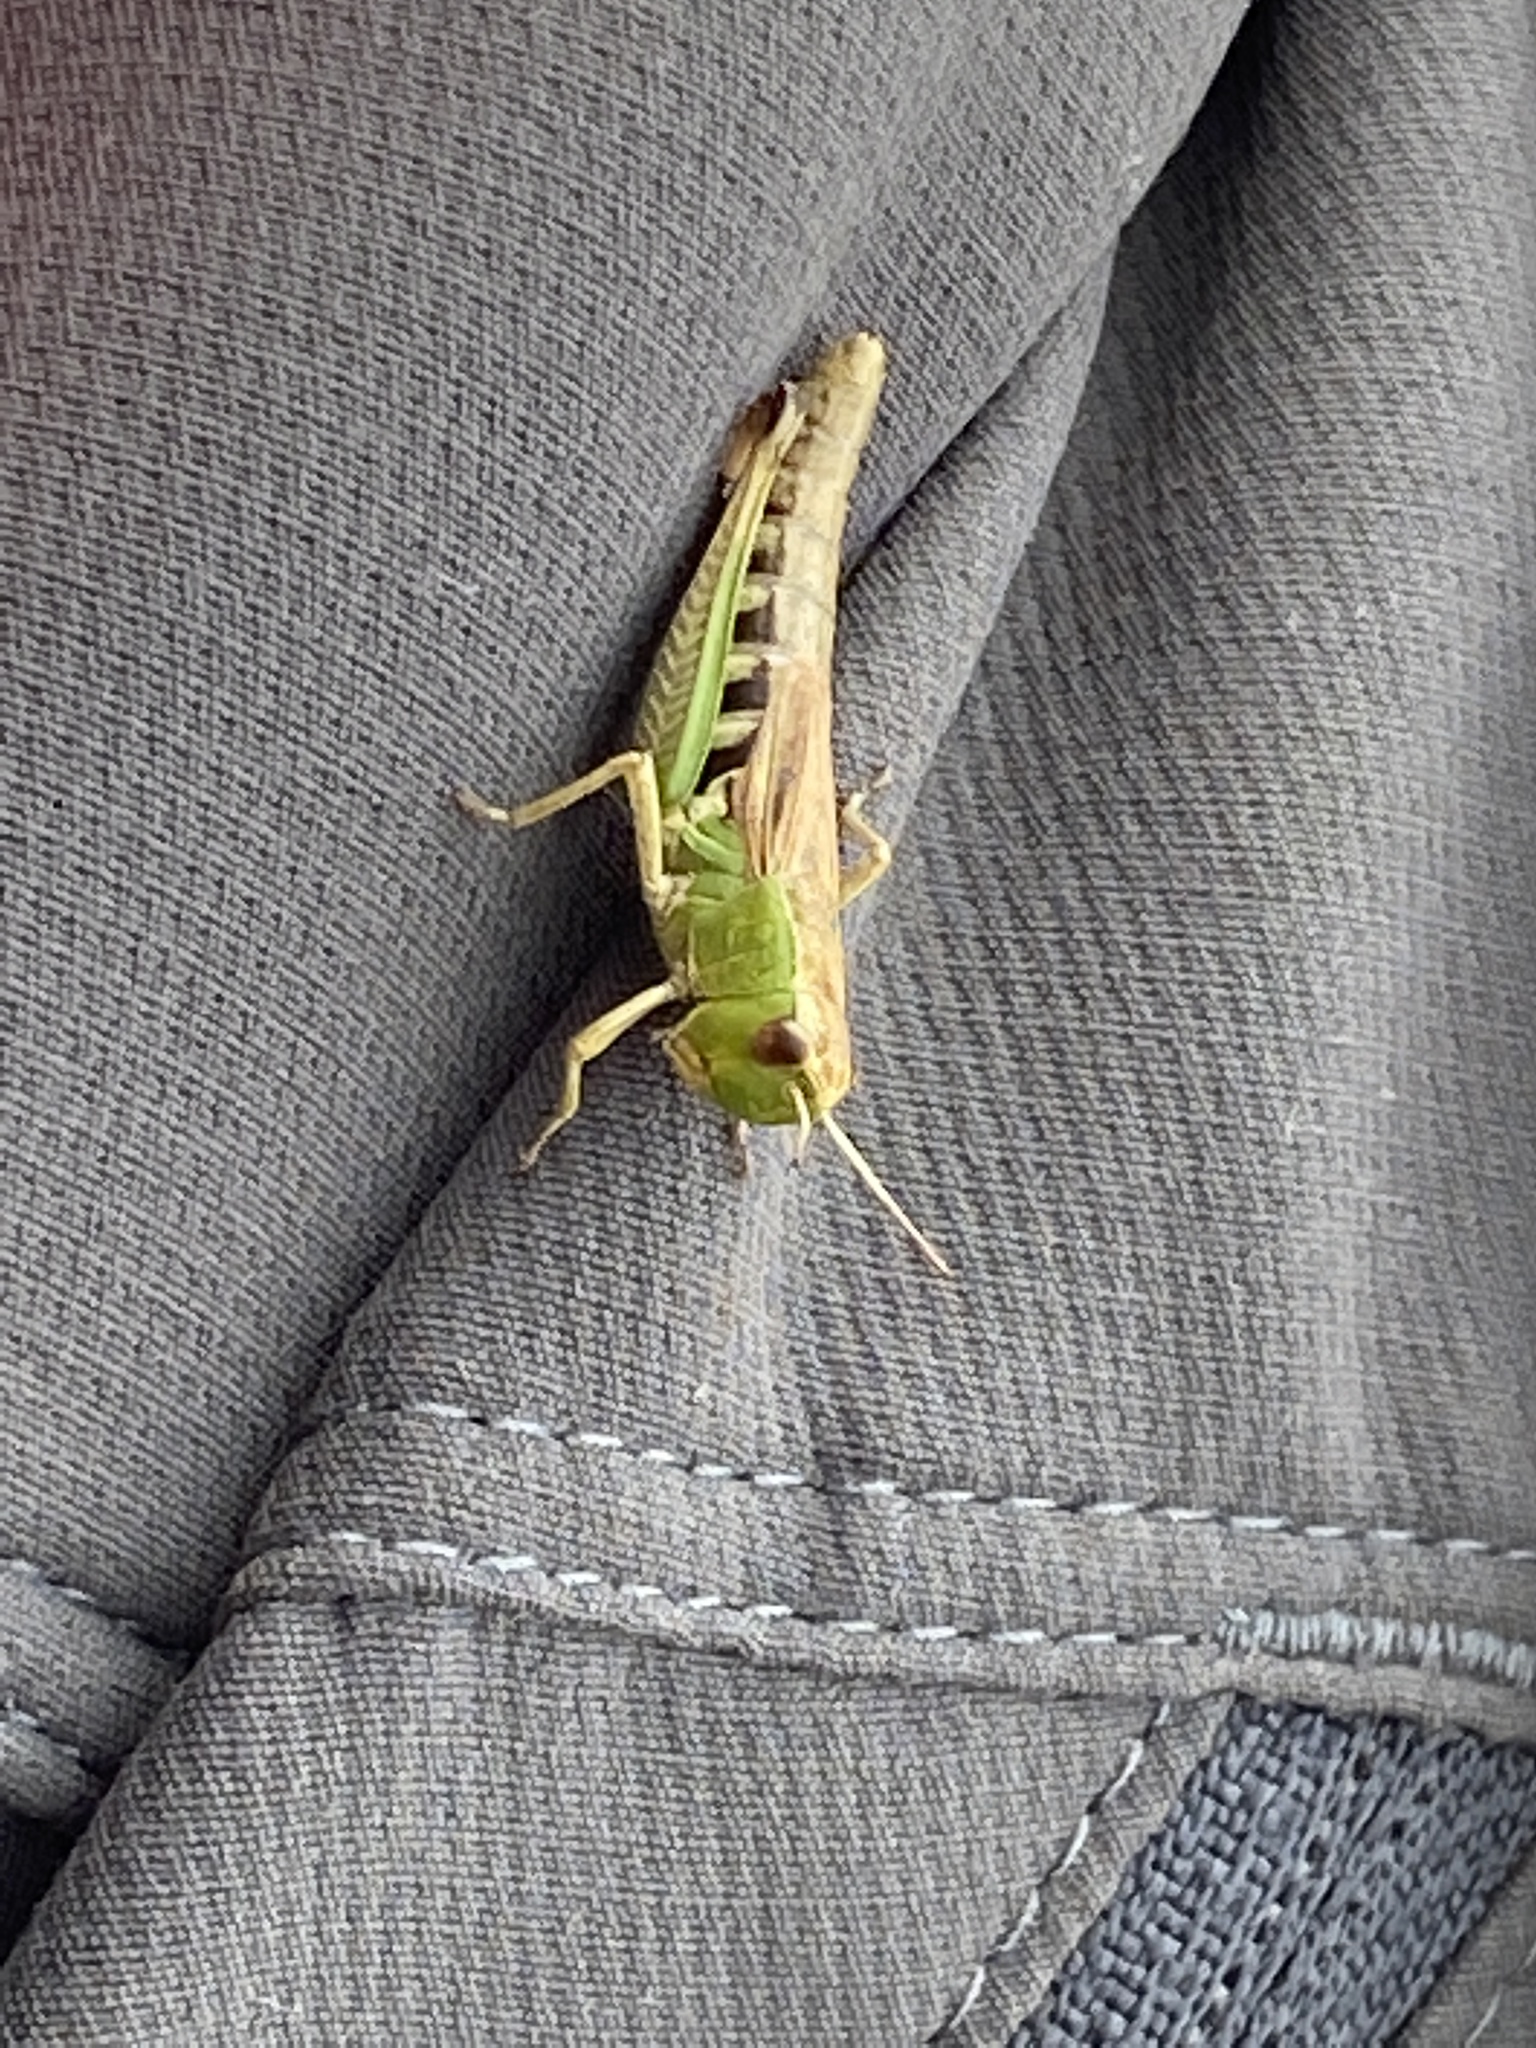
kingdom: Animalia
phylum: Arthropoda
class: Insecta
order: Orthoptera
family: Acrididae
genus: Pseudochorthippus
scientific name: Pseudochorthippus parallelus
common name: Meadow grasshopper
